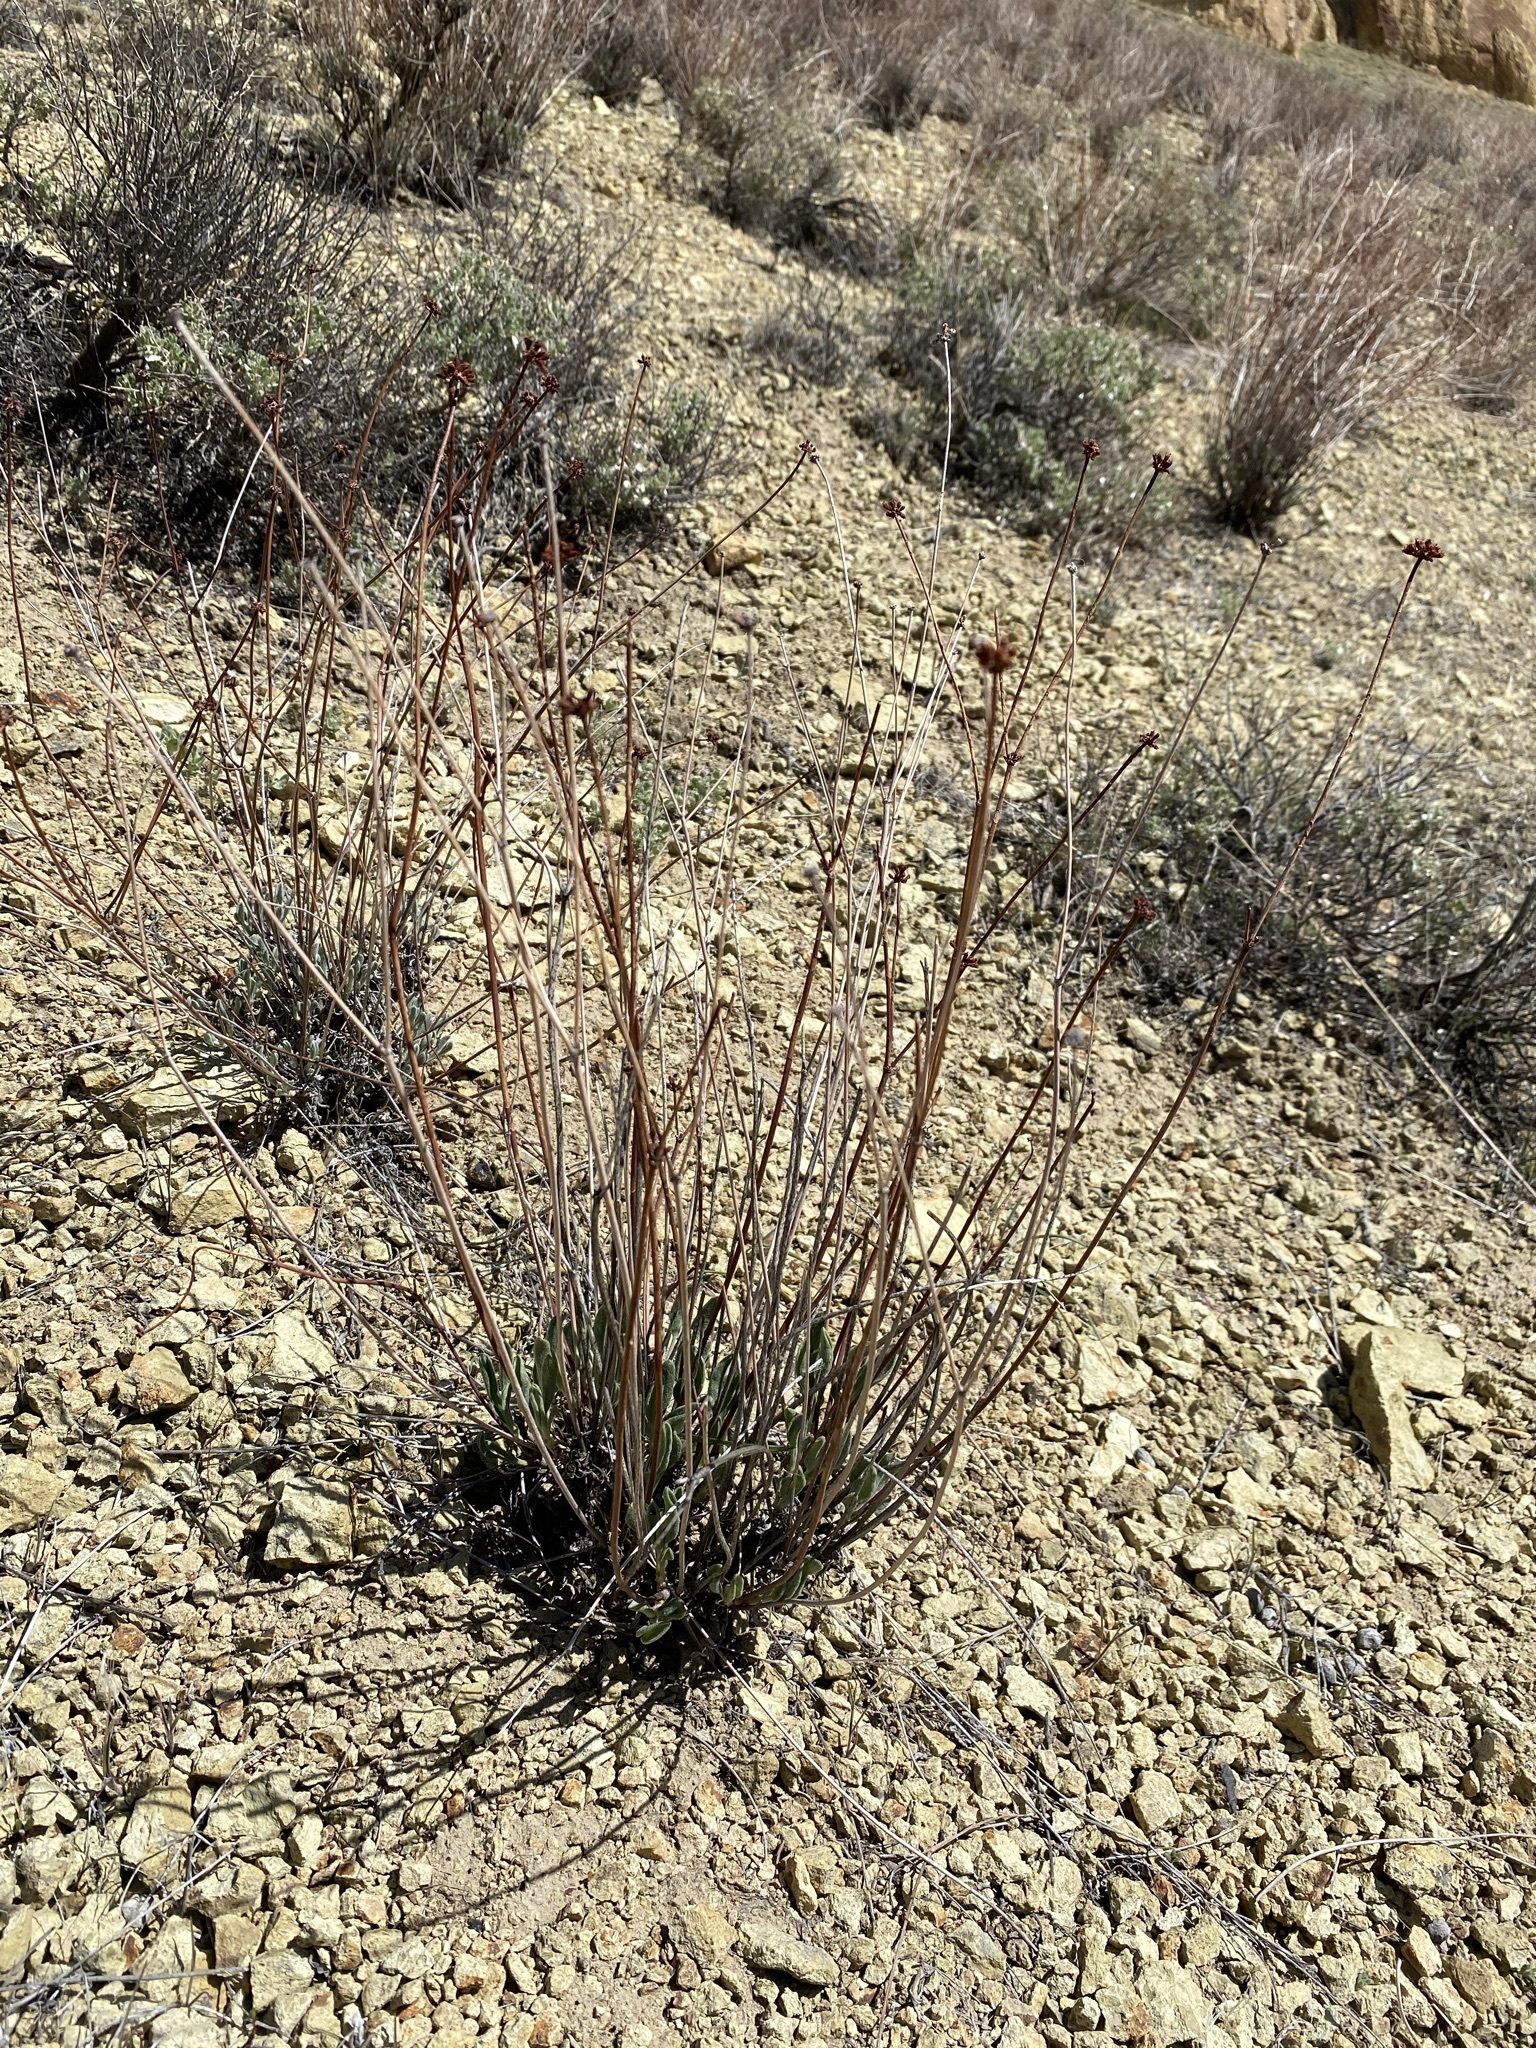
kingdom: Plantae
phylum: Tracheophyta
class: Magnoliopsida
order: Caryophyllales
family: Polygonaceae
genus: Eriogonum
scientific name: Eriogonum novonudum
